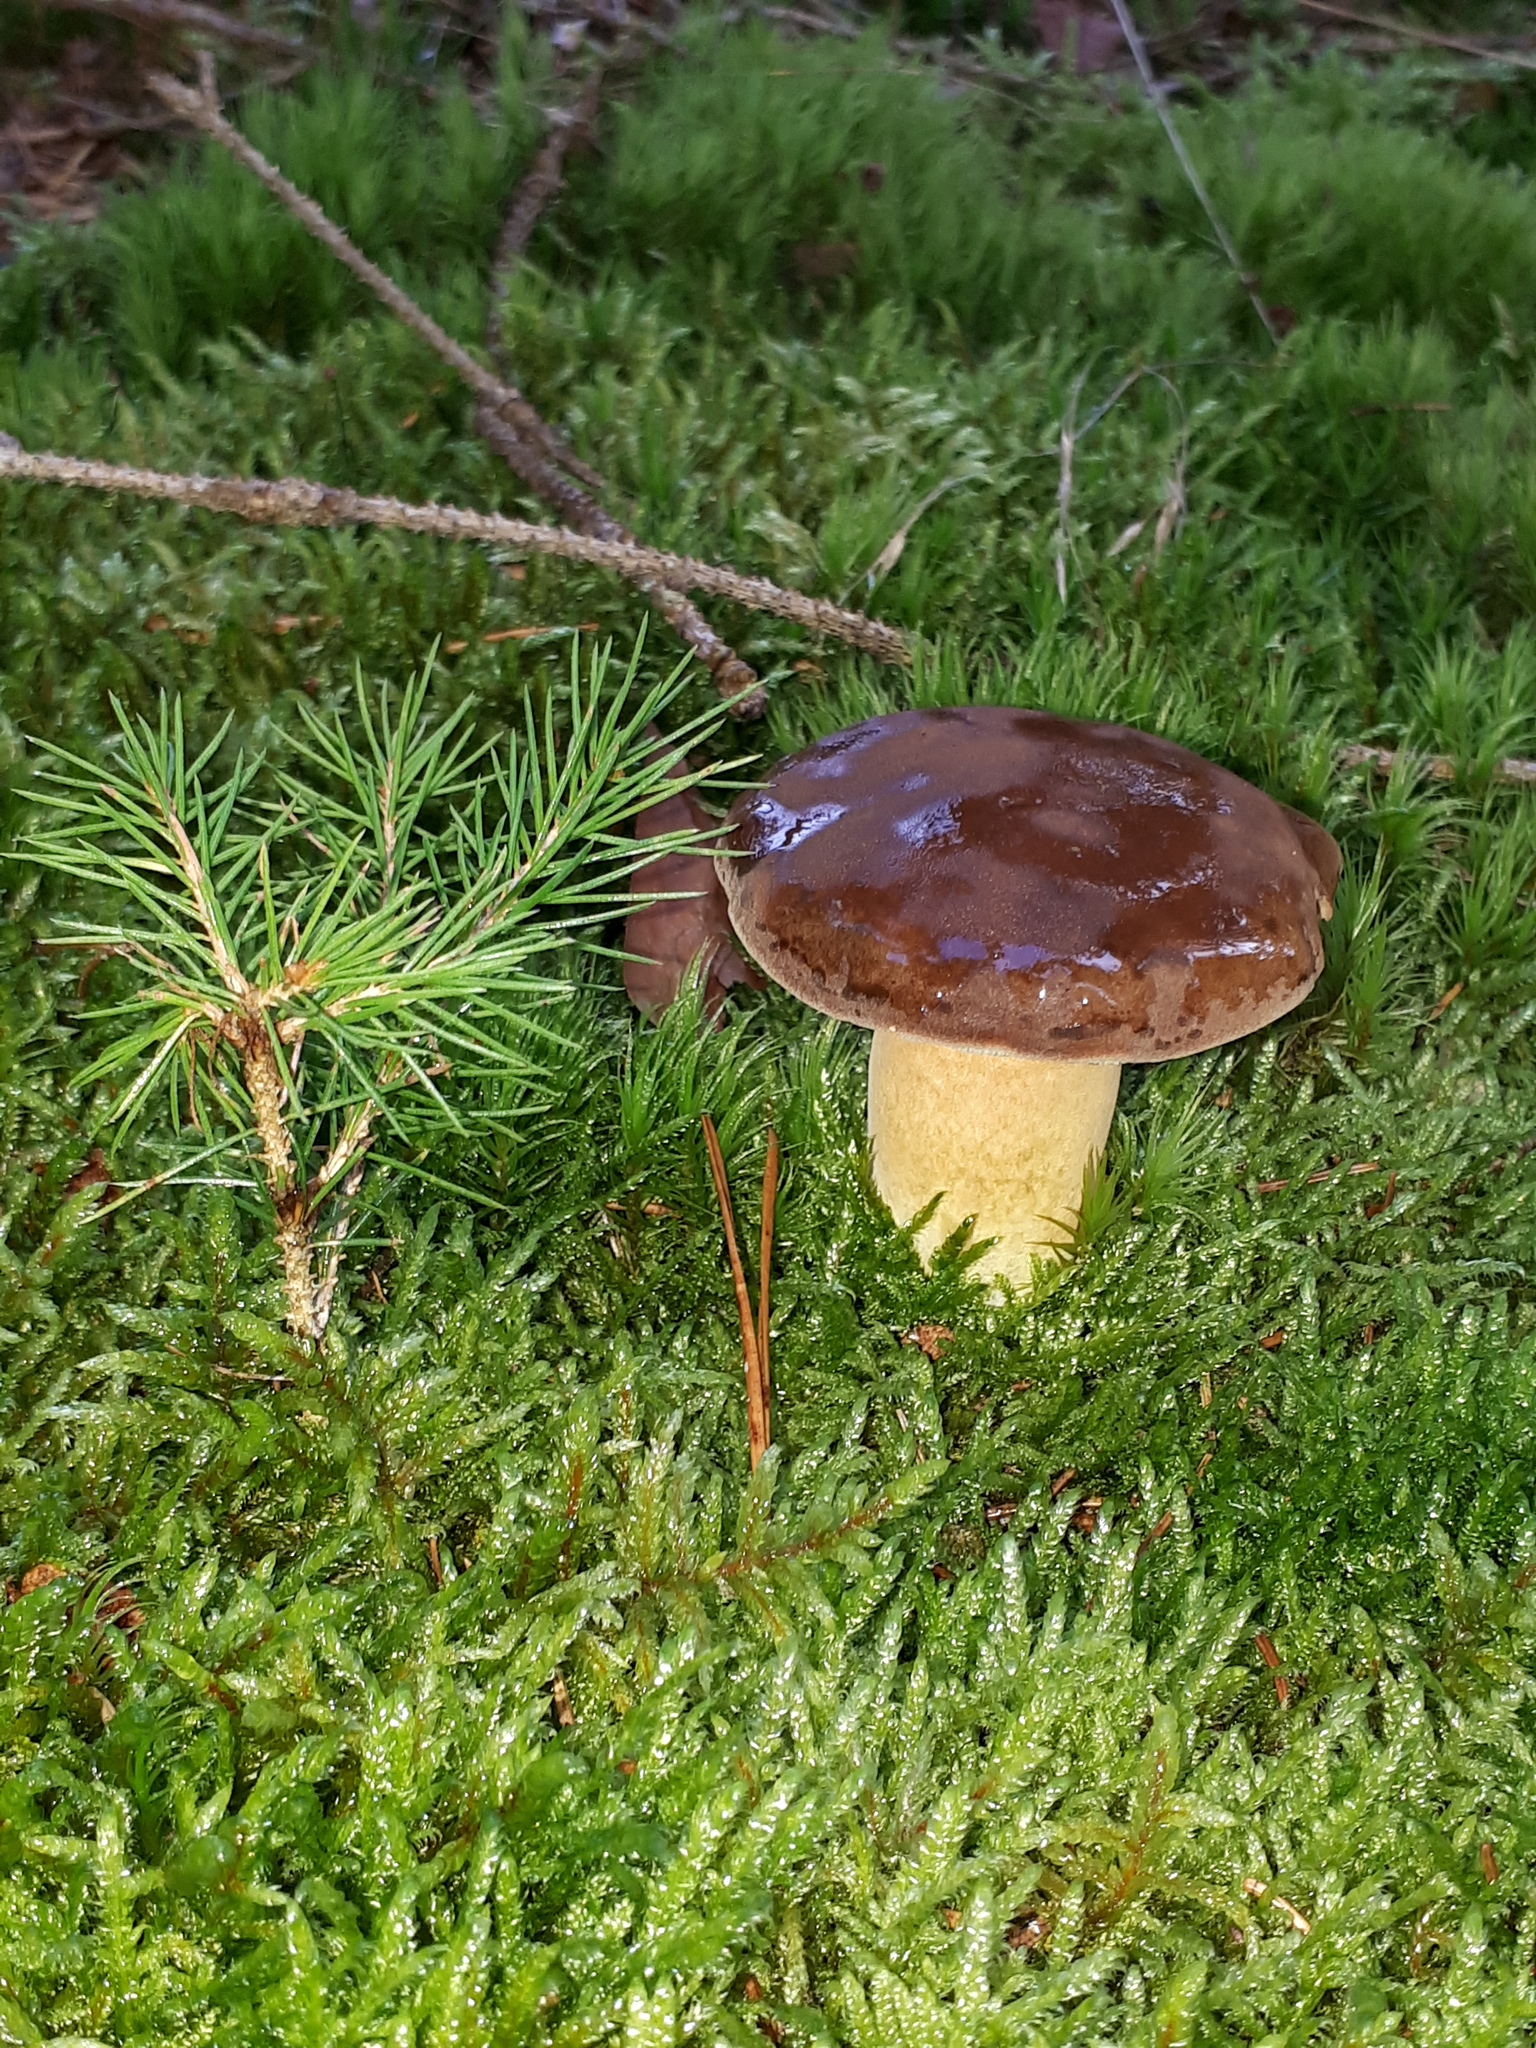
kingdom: Fungi
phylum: Basidiomycota
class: Agaricomycetes
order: Boletales
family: Boletaceae
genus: Imleria
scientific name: Imleria badia
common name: Bay bolete
